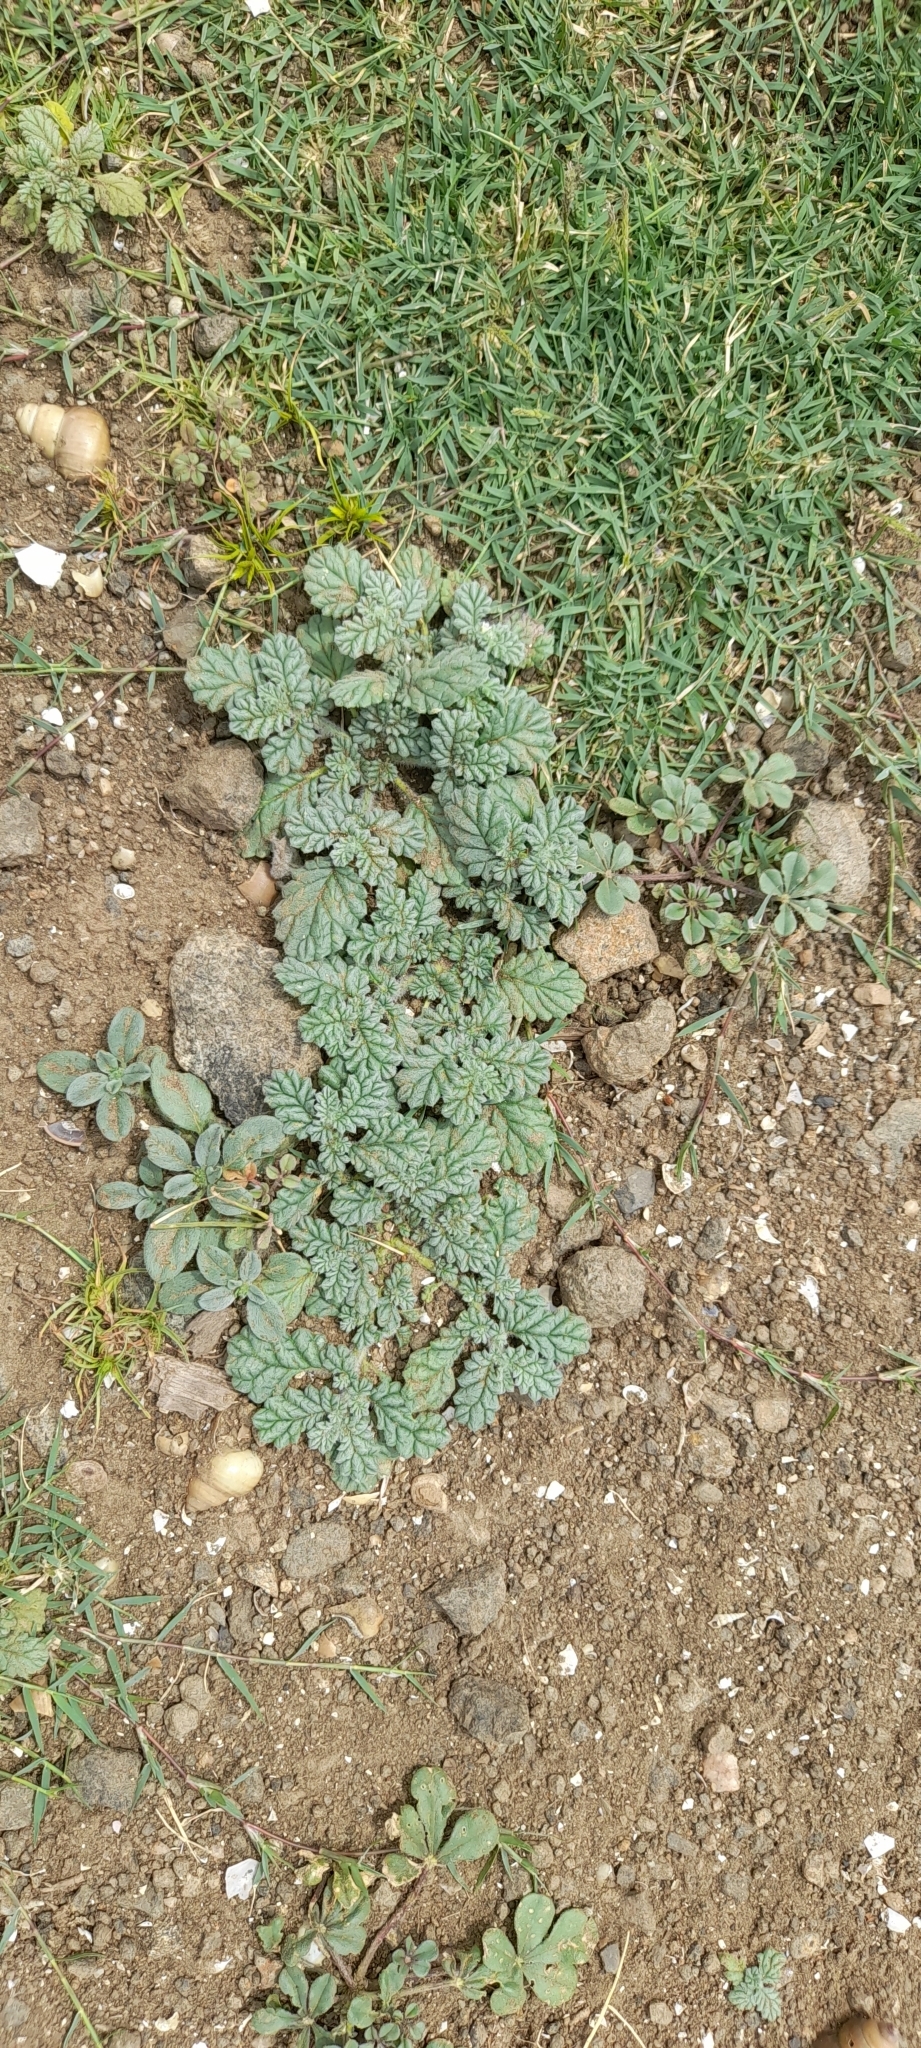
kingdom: Plantae
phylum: Tracheophyta
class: Magnoliopsida
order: Boraginales
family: Coldeniaceae
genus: Coldenia
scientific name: Coldenia procumbens
